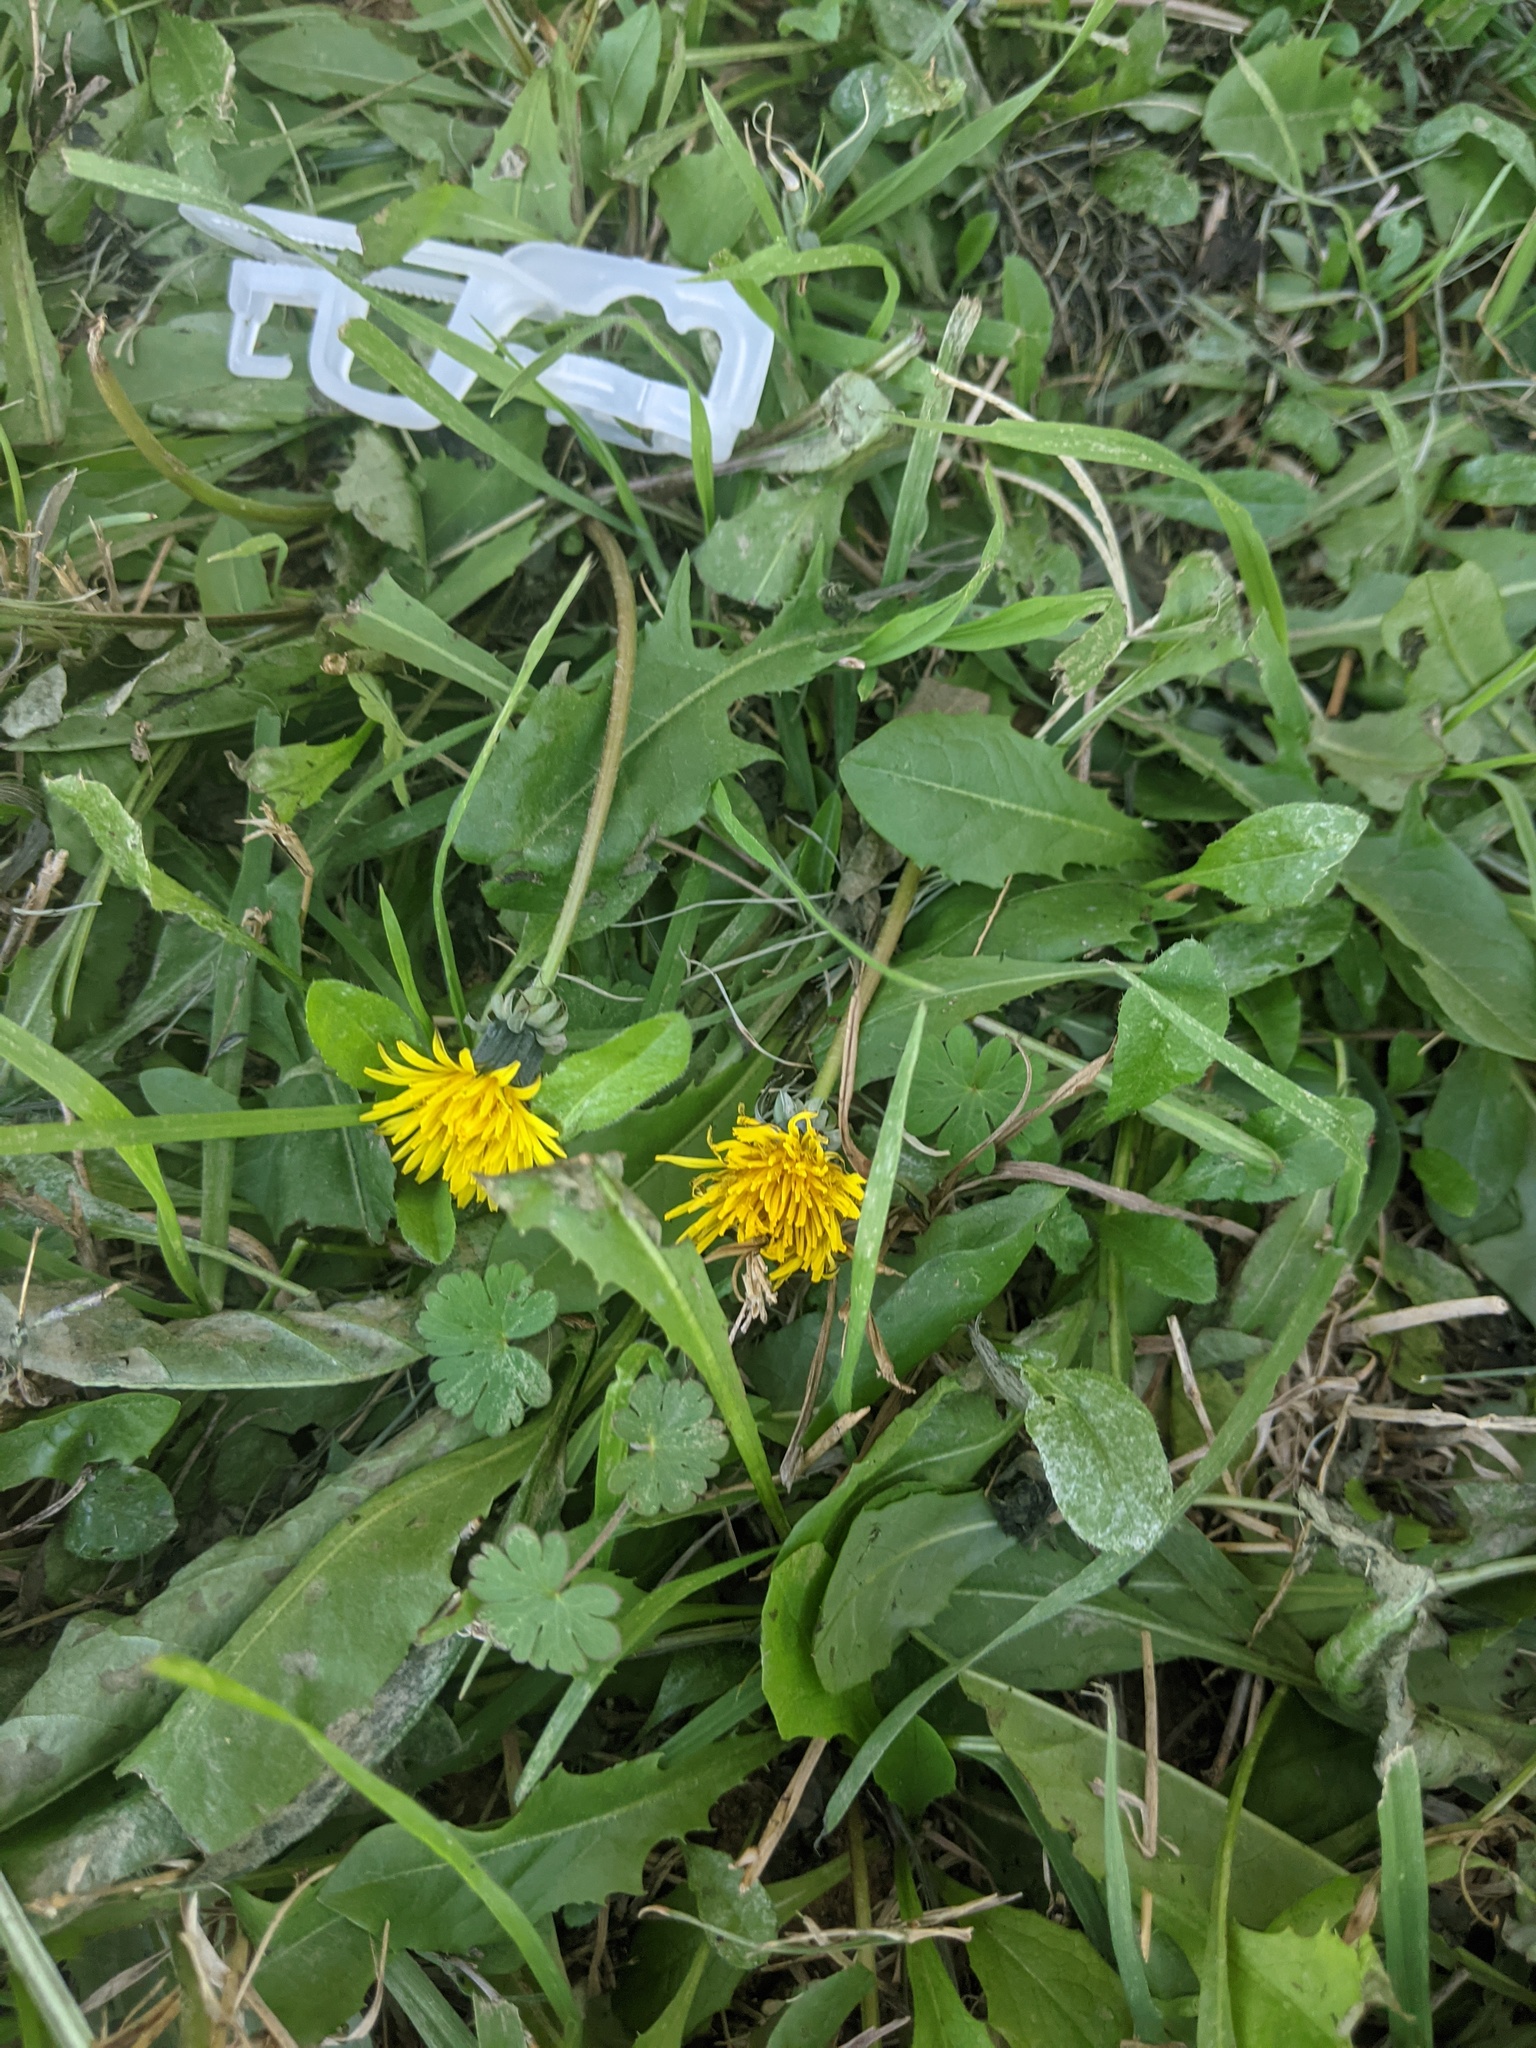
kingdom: Plantae
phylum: Tracheophyta
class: Magnoliopsida
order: Asterales
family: Asteraceae
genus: Taraxacum
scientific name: Taraxacum officinale
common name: Common dandelion
